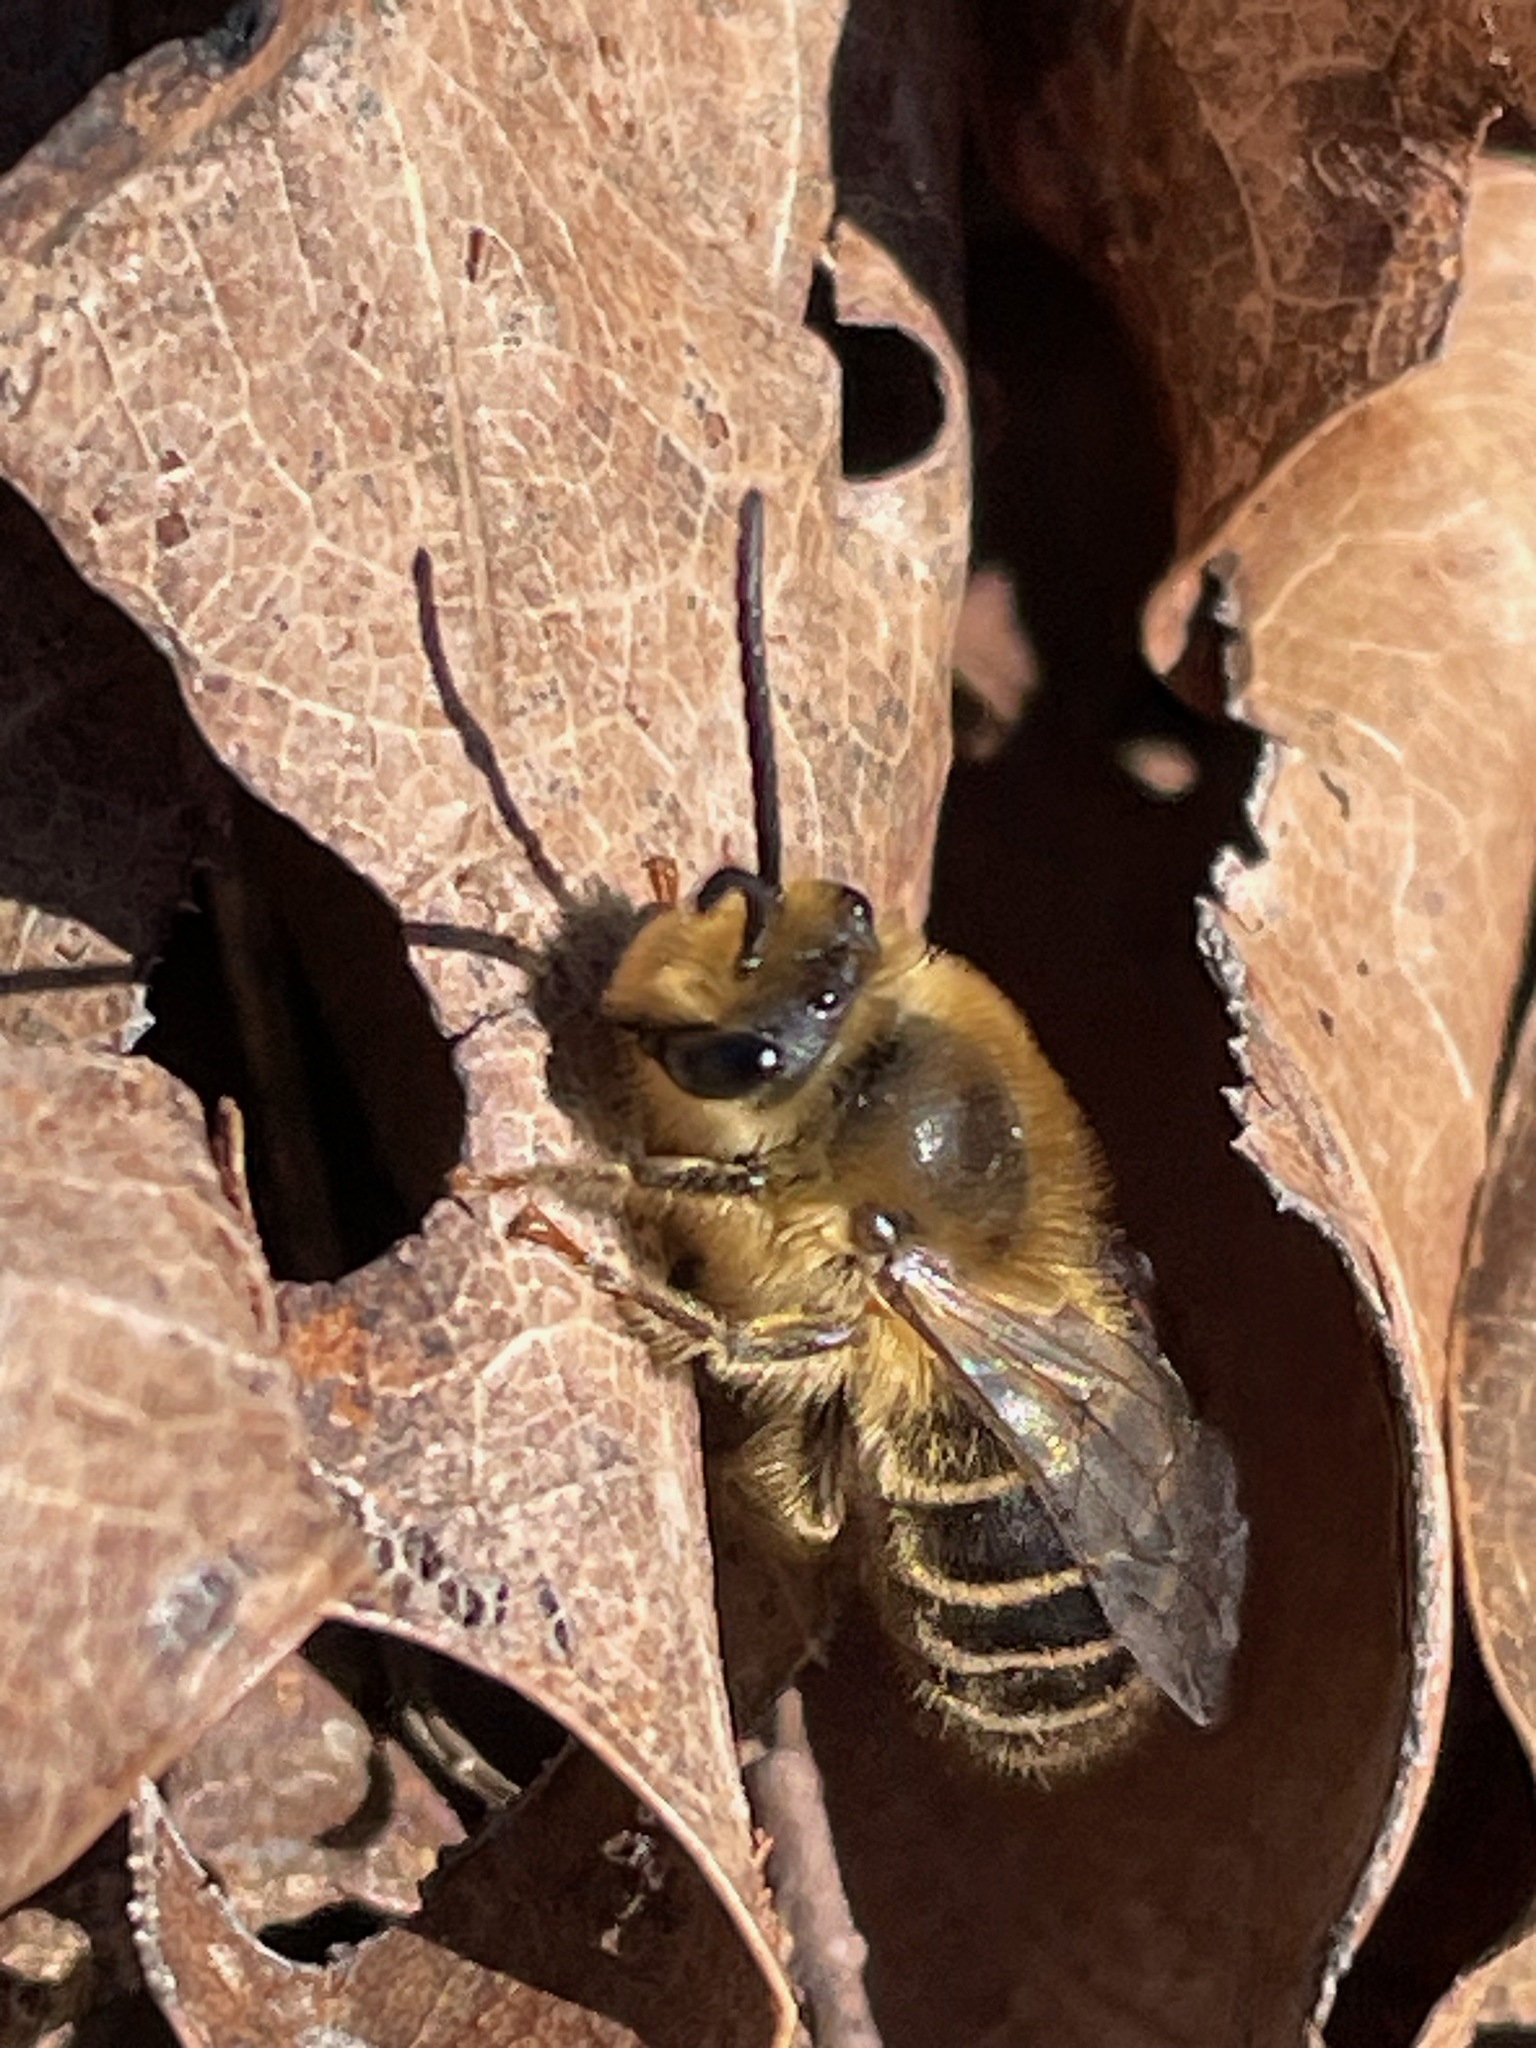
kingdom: Animalia
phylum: Arthropoda
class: Insecta
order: Hymenoptera
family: Colletidae
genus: Colletes
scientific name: Colletes inaequalis
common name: Unequal cellophane bee
